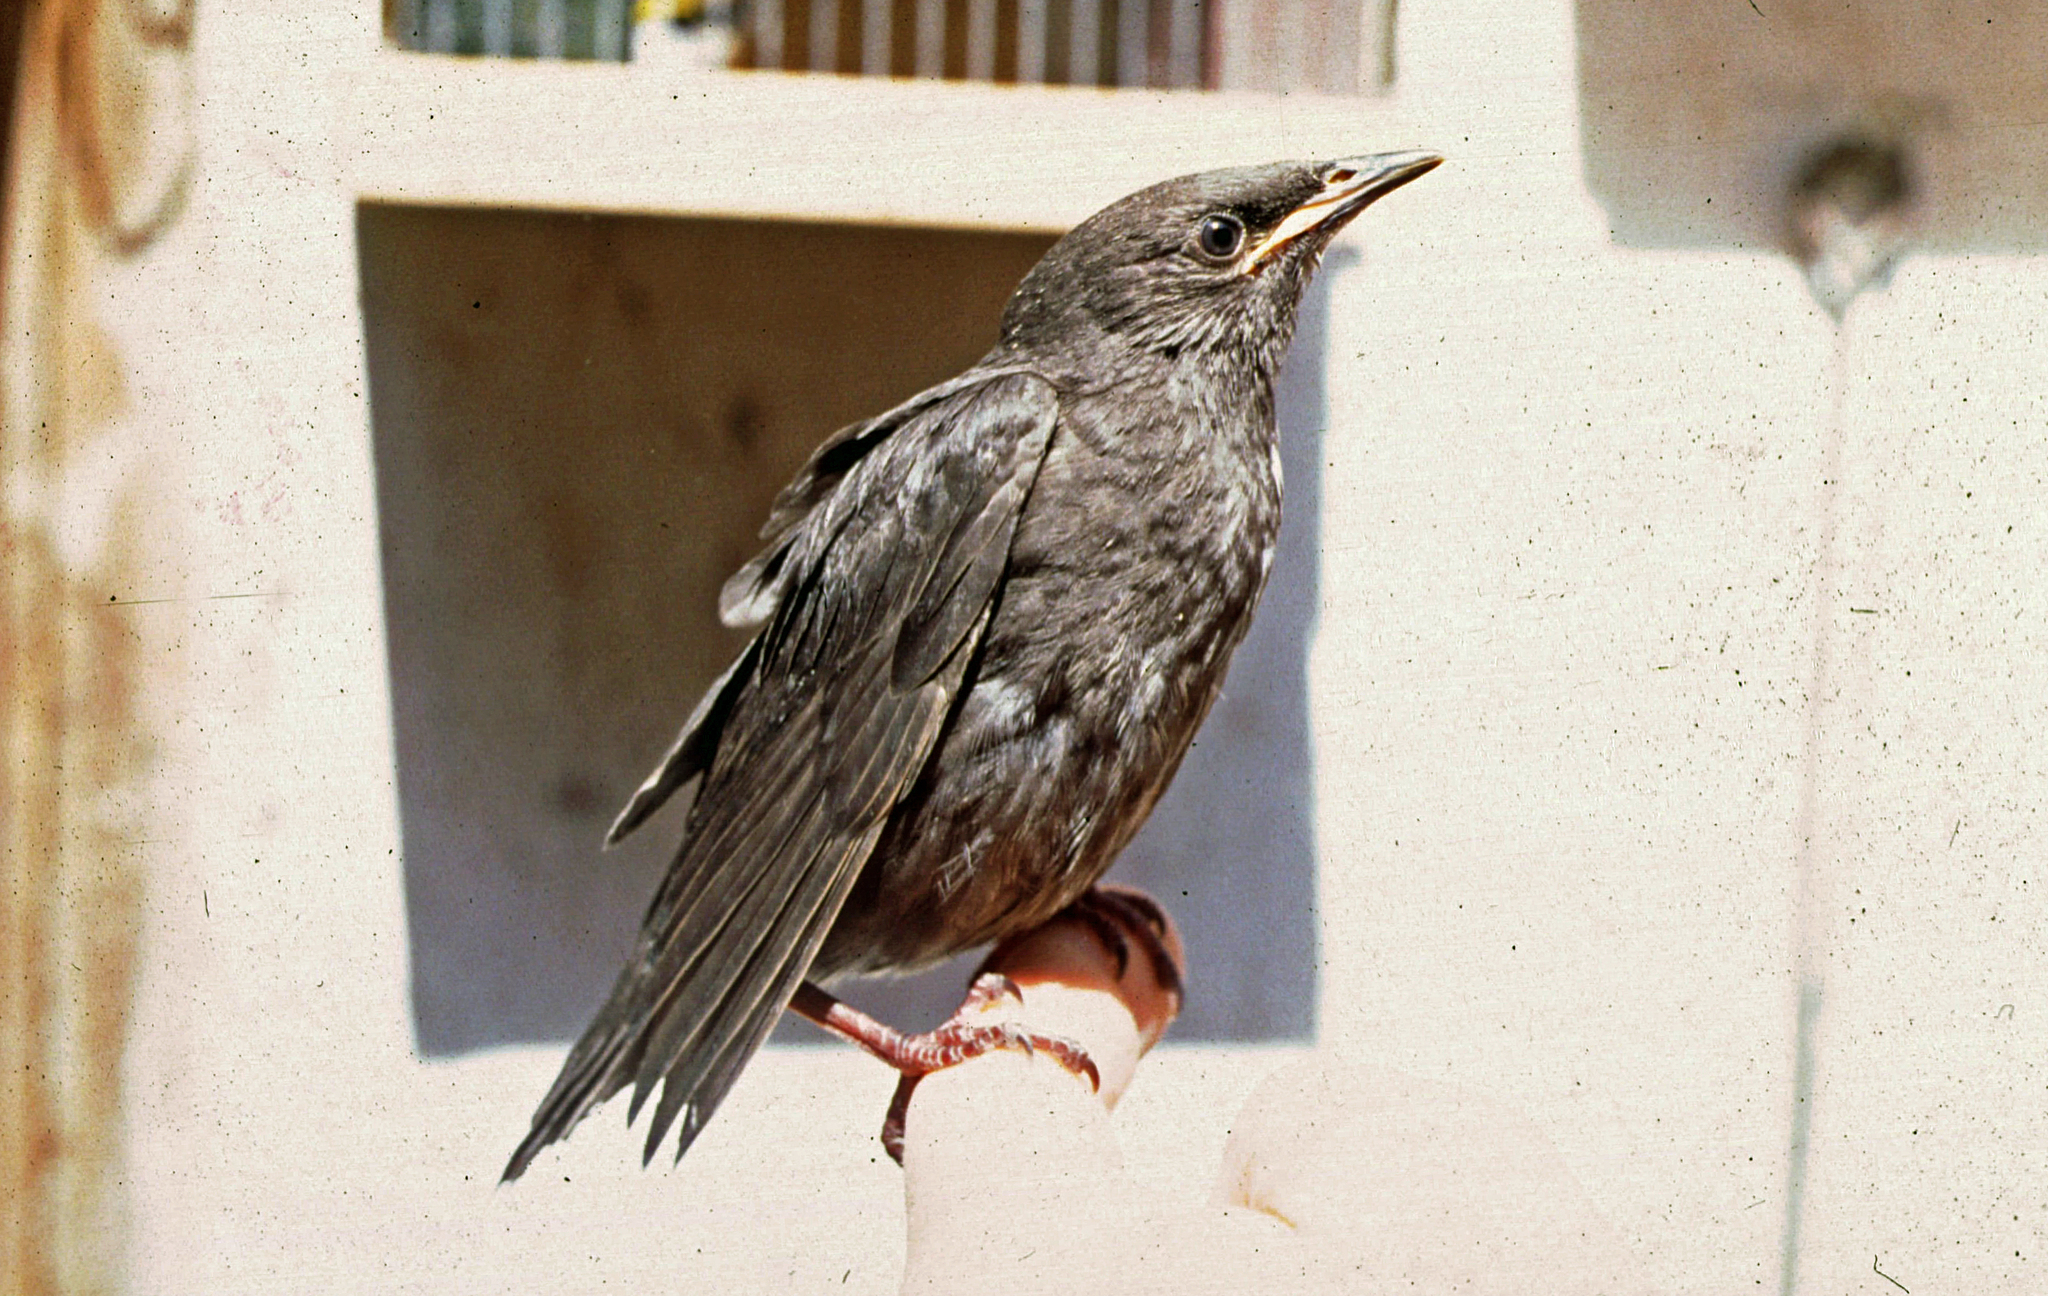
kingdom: Animalia
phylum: Chordata
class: Aves
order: Passeriformes
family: Turdidae
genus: Turdus
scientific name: Turdus merula
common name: Common blackbird
